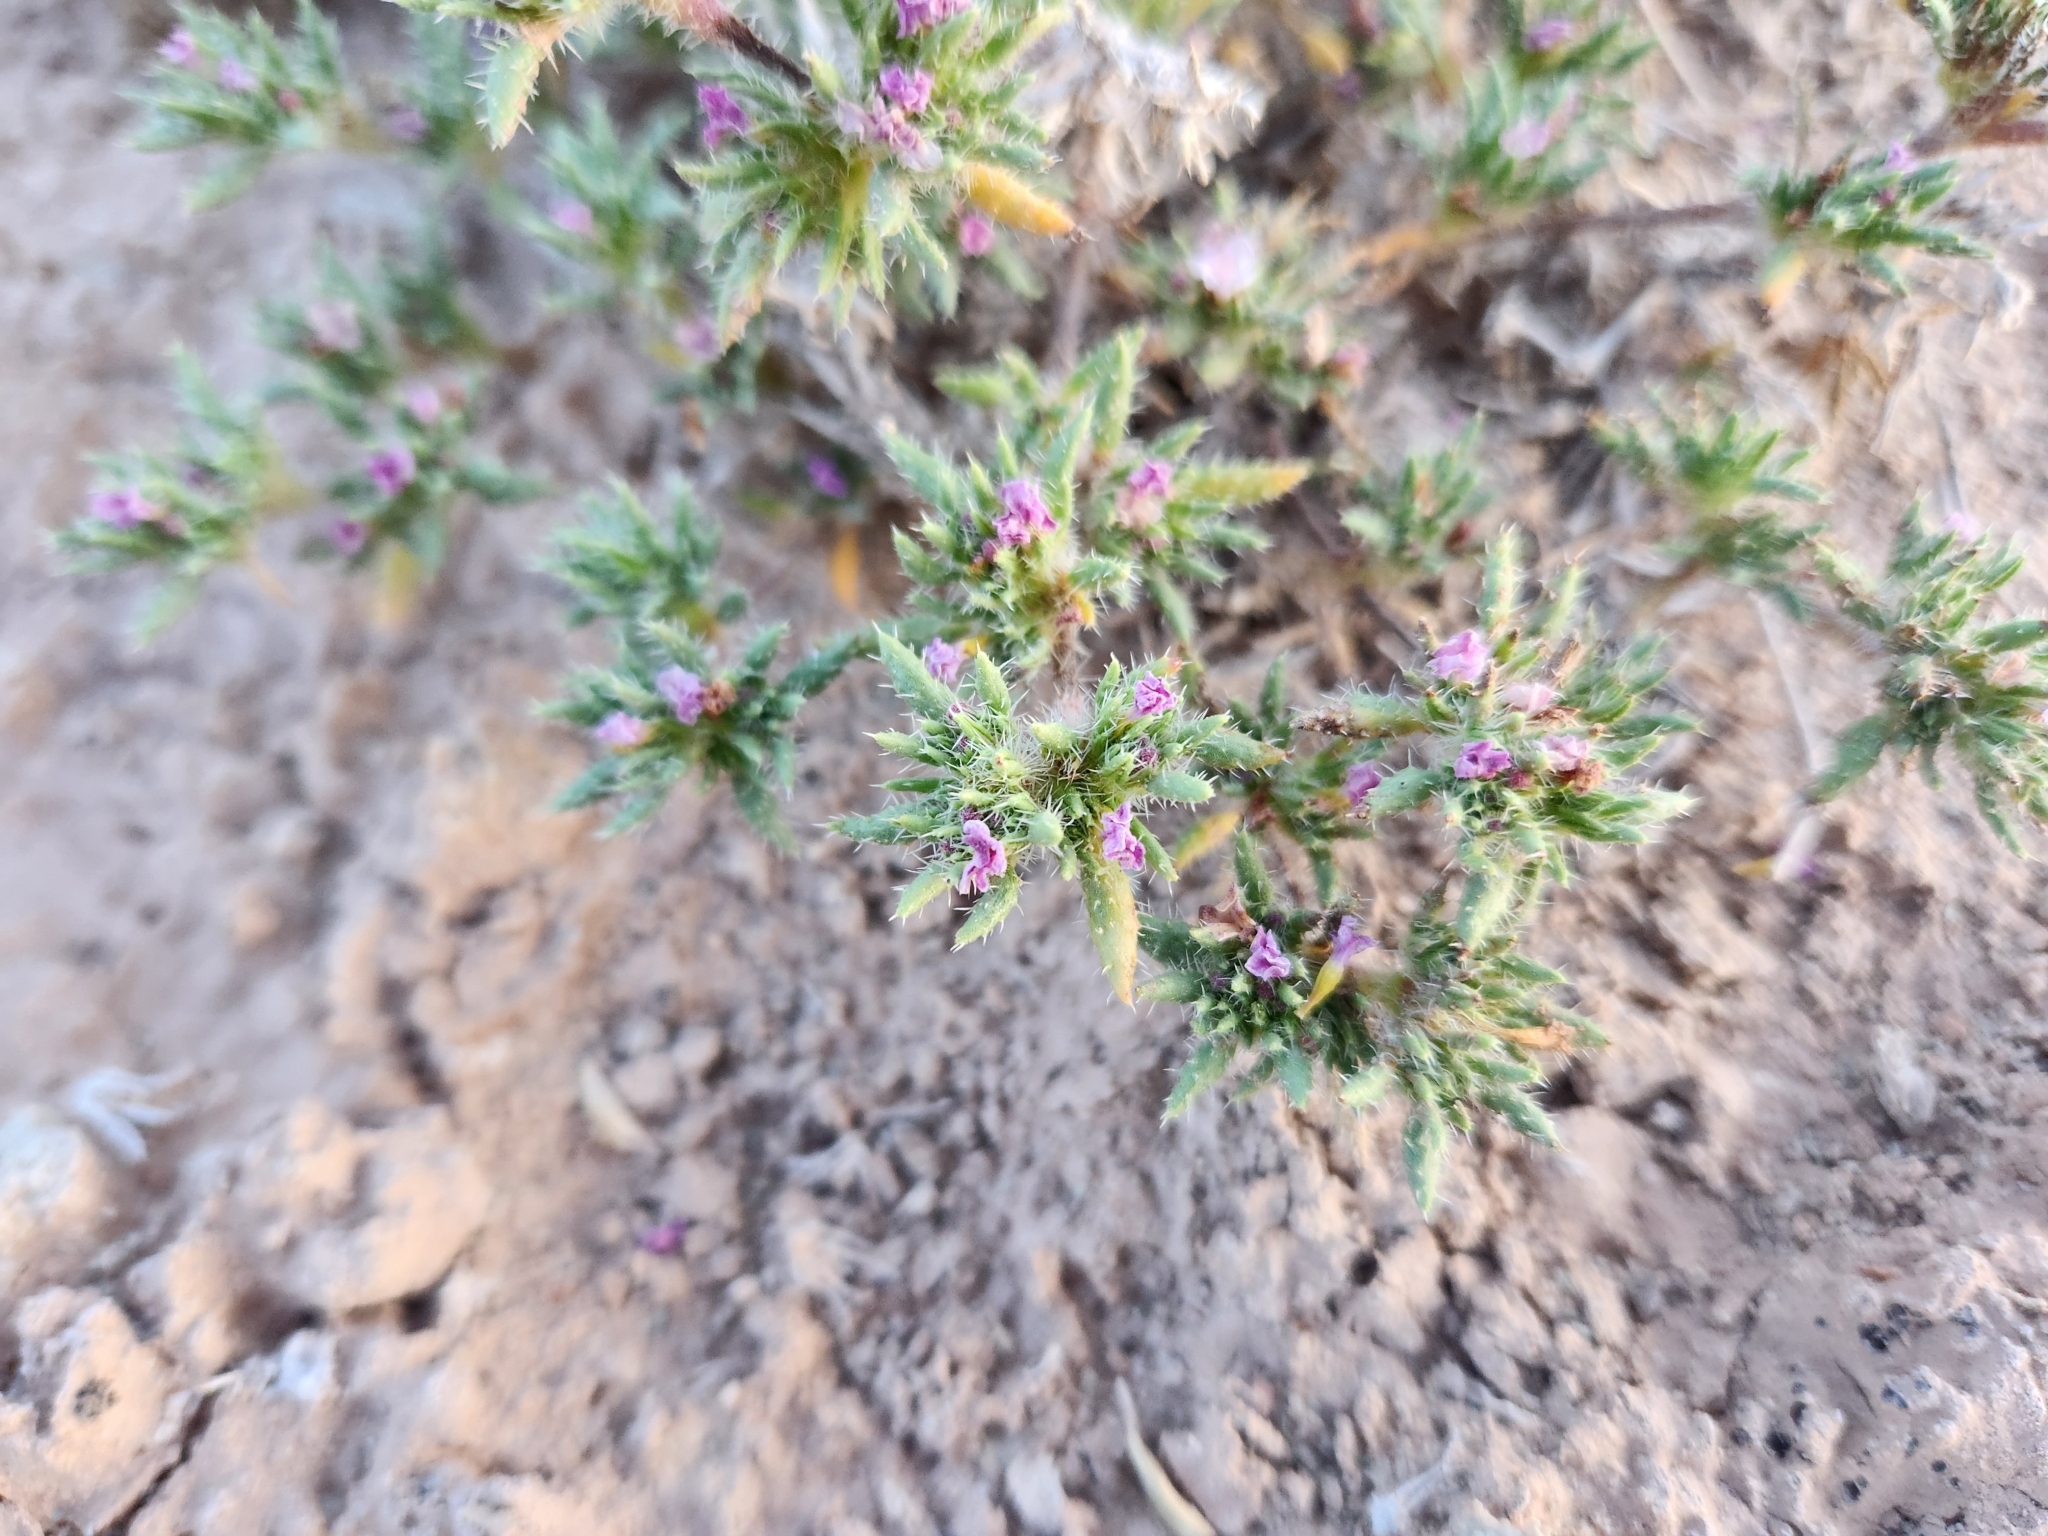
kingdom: Plantae
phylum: Tracheophyta
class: Magnoliopsida
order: Boraginales
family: Ehretiaceae
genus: Tiquilia
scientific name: Tiquilia latior
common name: Matted tiquilia
